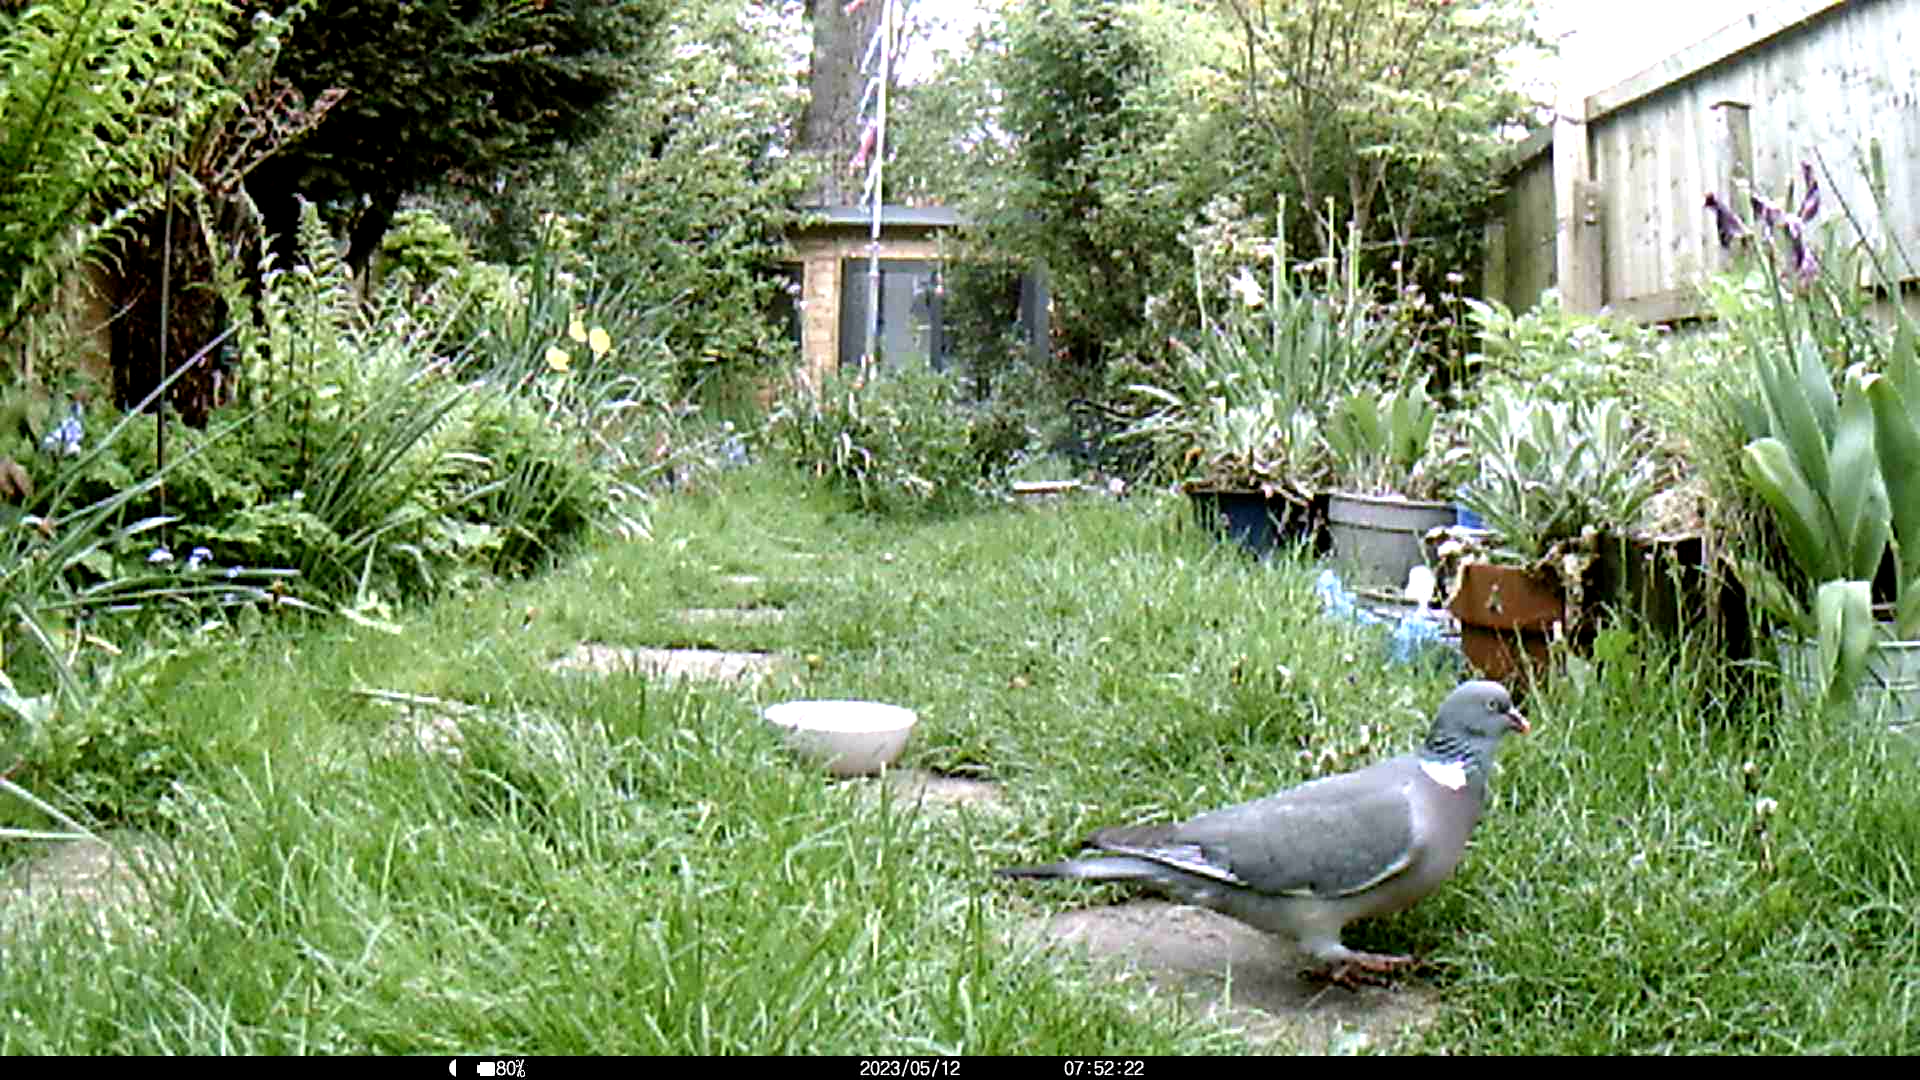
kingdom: Animalia
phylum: Chordata
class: Aves
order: Columbiformes
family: Columbidae
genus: Columba
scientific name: Columba palumbus
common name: Common wood pigeon
